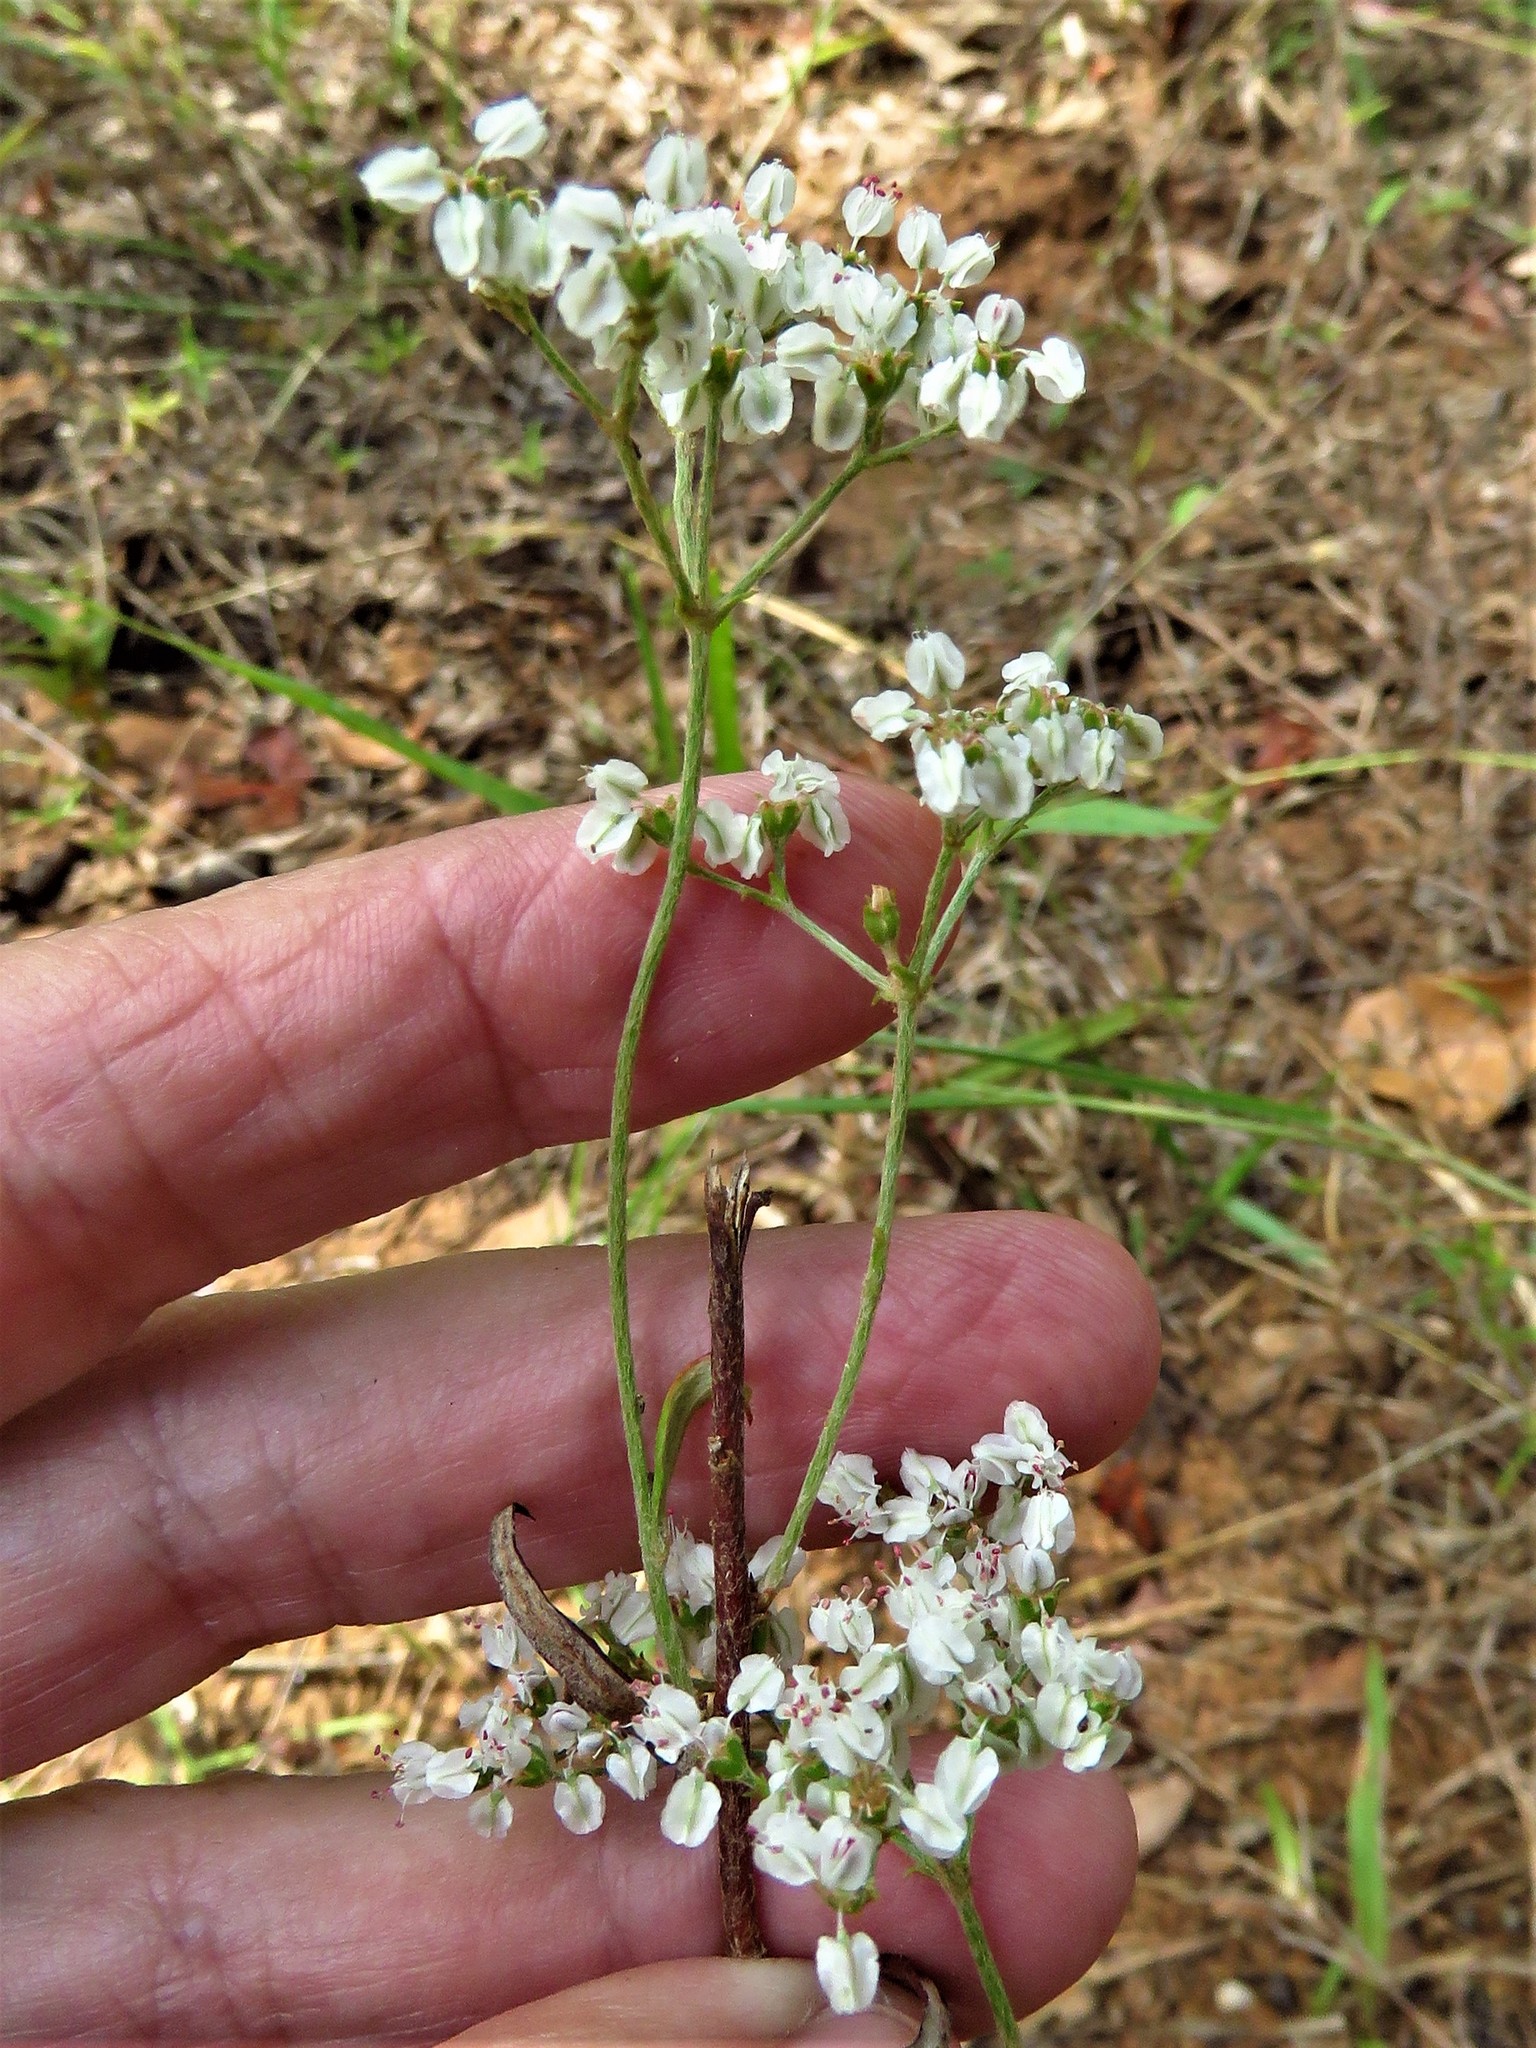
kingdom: Plantae
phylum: Tracheophyta
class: Magnoliopsida
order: Caryophyllales
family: Polygonaceae
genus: Eriogonum
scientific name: Eriogonum multiflorum
